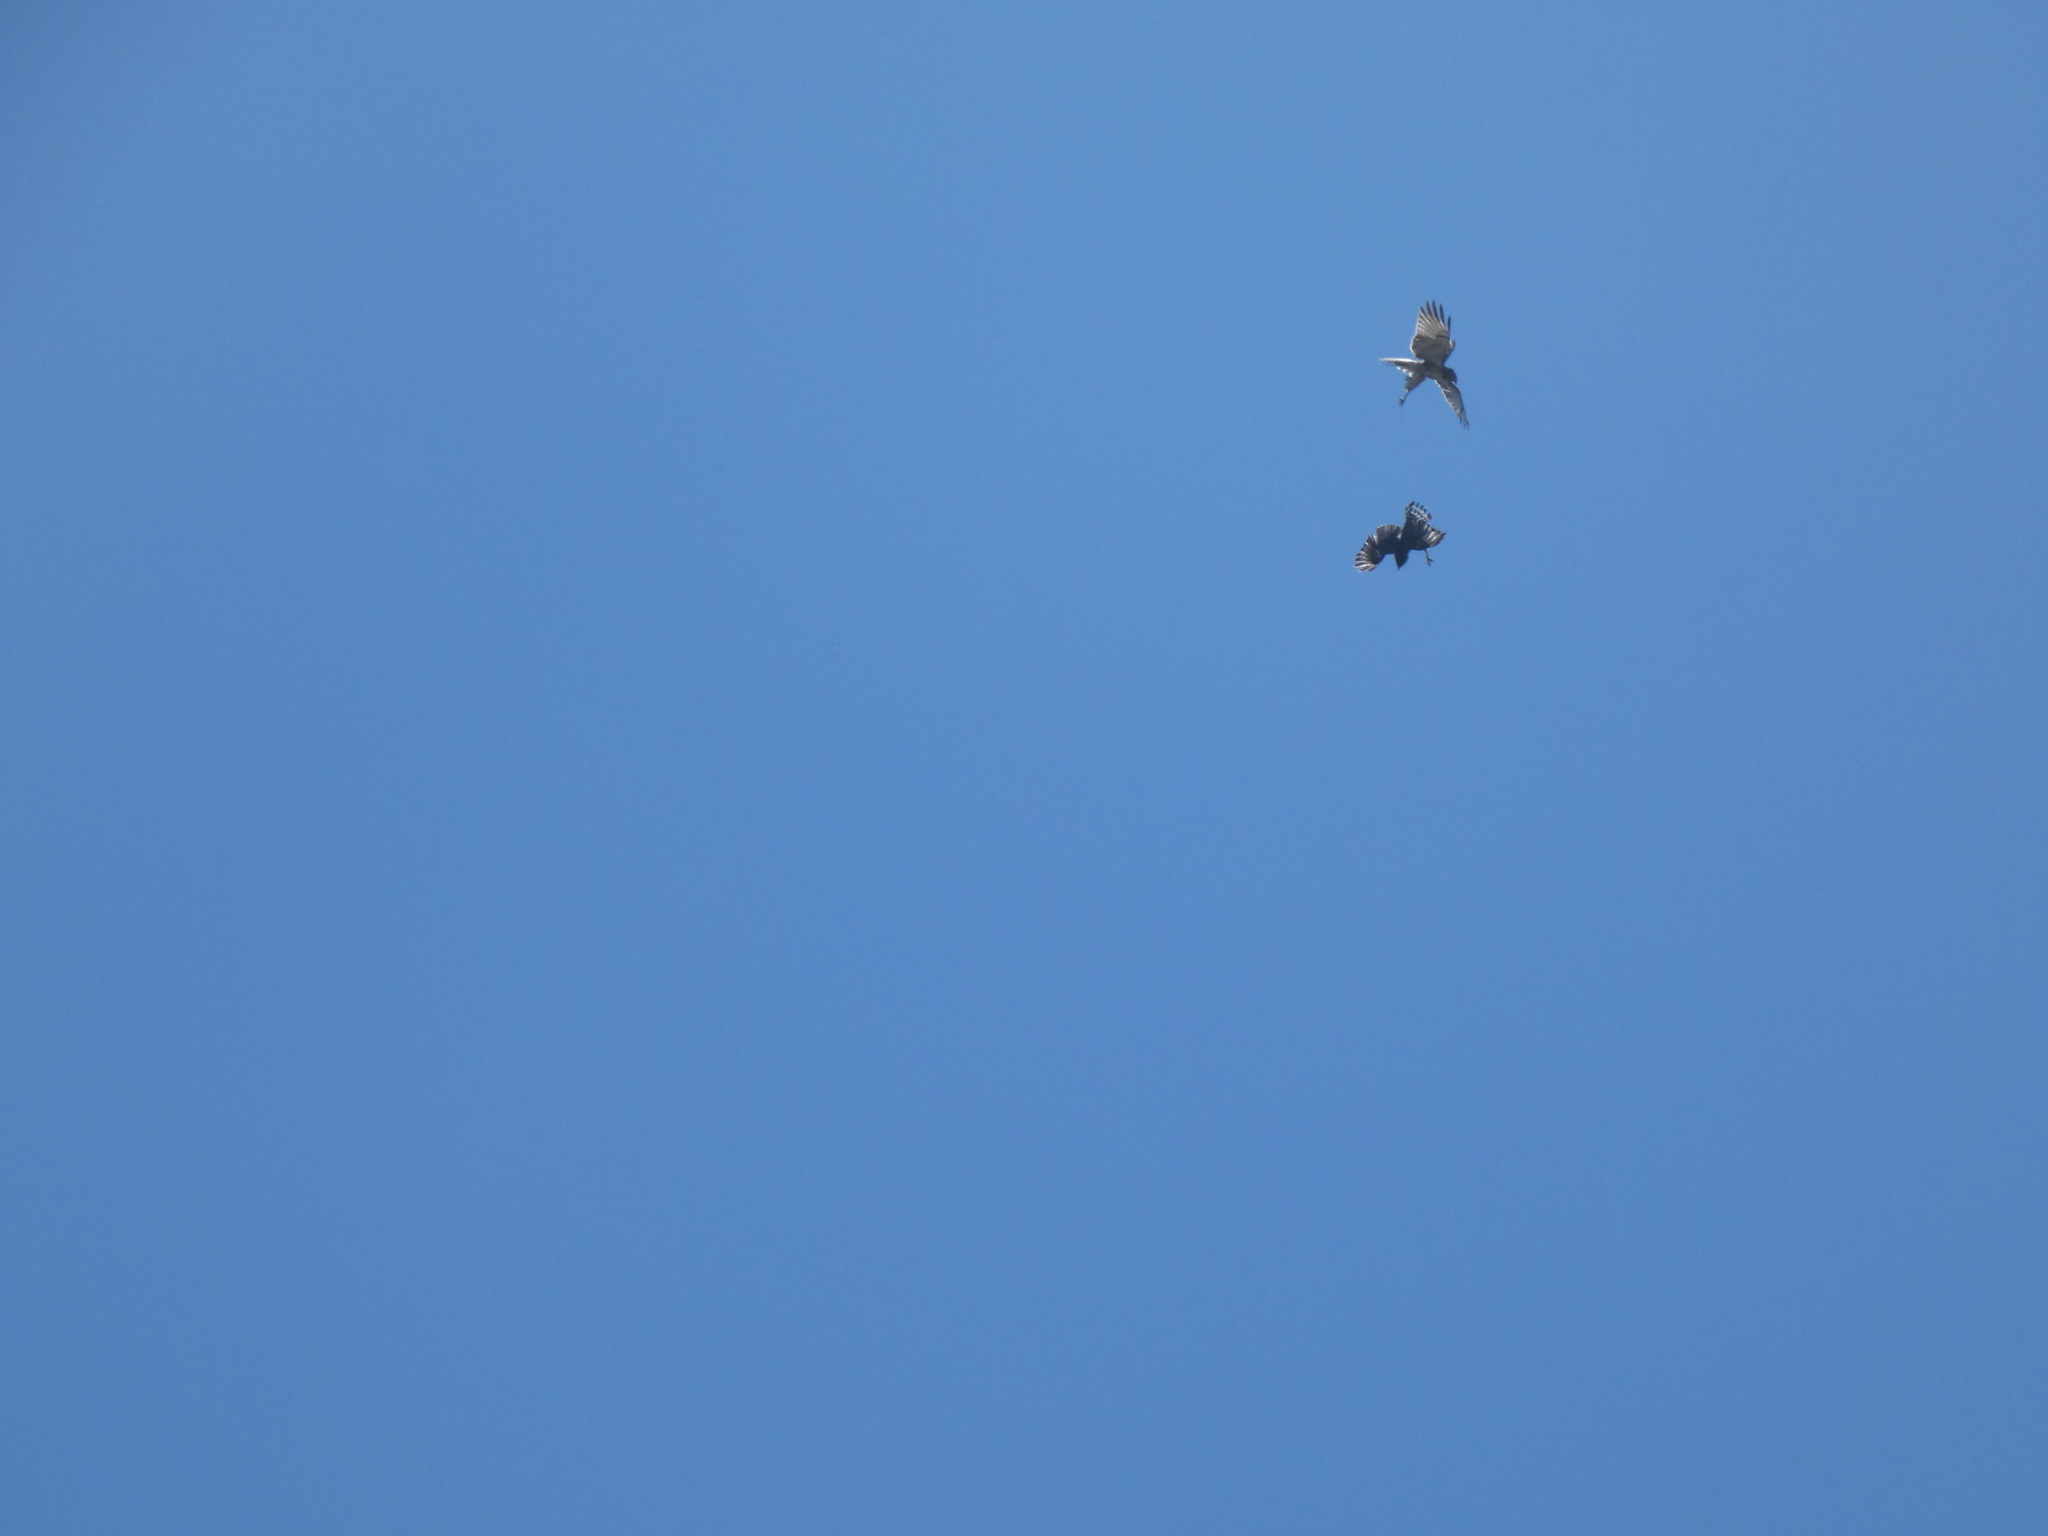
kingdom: Animalia
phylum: Chordata
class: Aves
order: Accipitriformes
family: Accipitridae
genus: Buteo
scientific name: Buteo jamaicensis
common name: Red-tailed hawk
